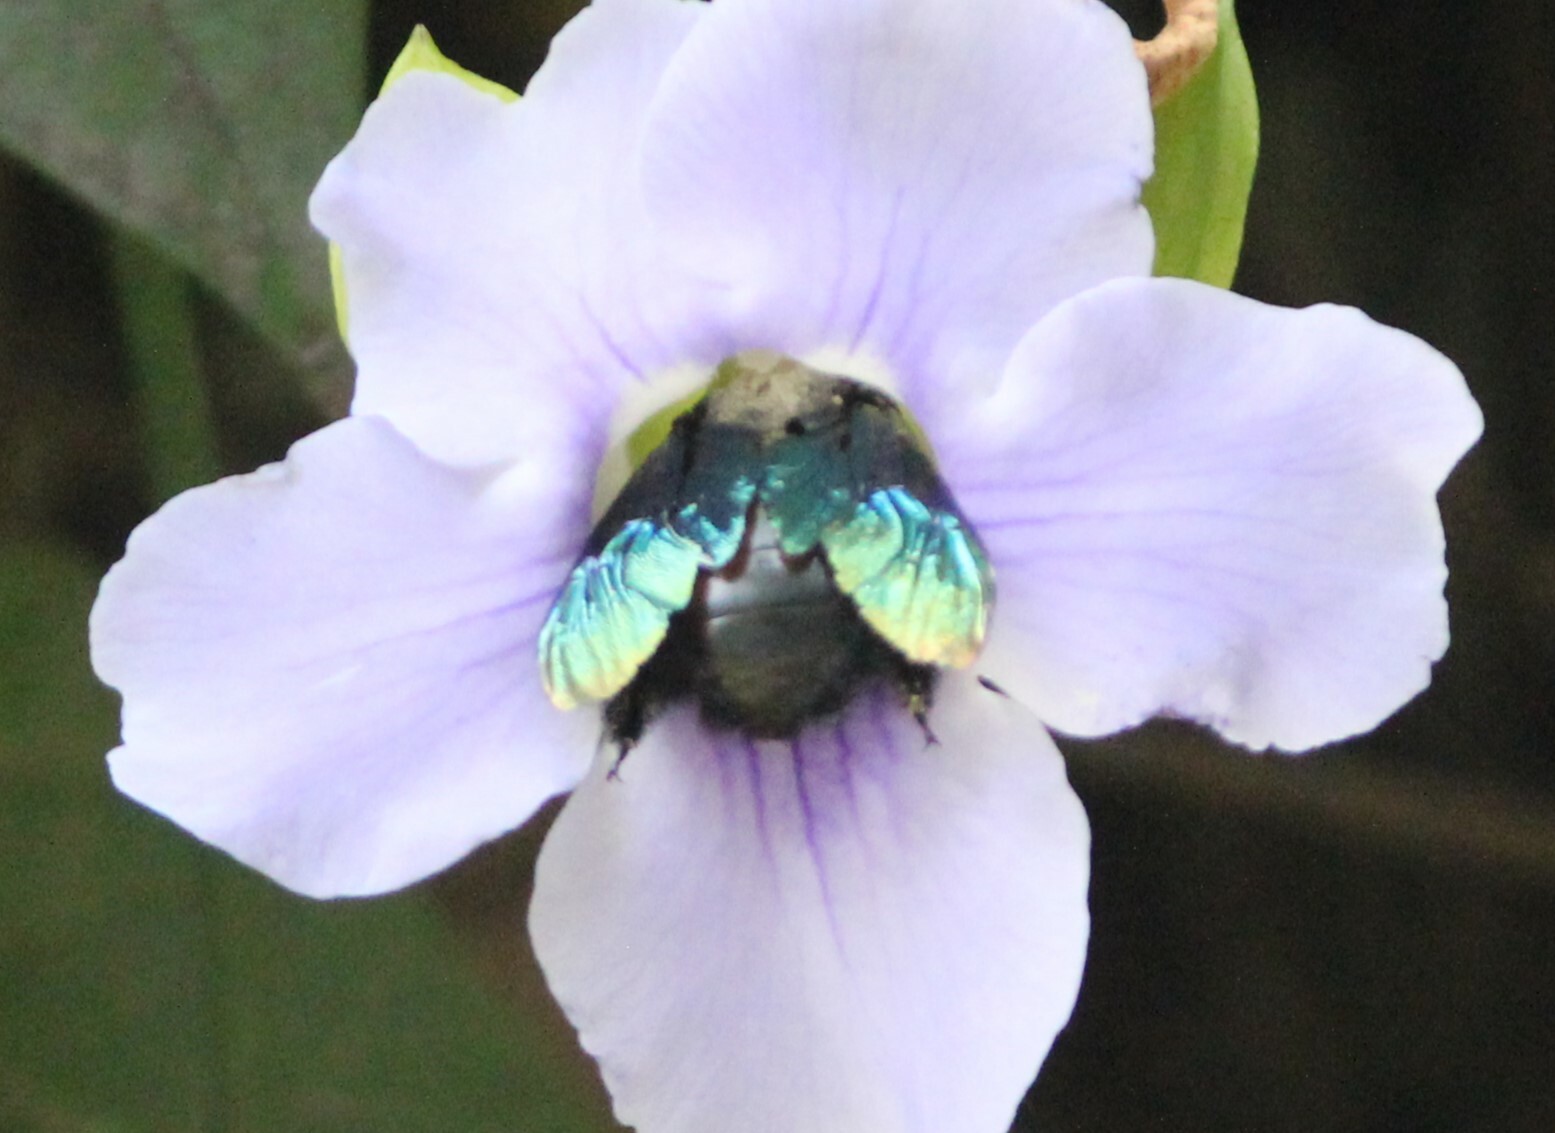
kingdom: Animalia
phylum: Arthropoda
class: Insecta
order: Hymenoptera
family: Apidae
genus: Xylocopa
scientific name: Xylocopa tenuiscapa
